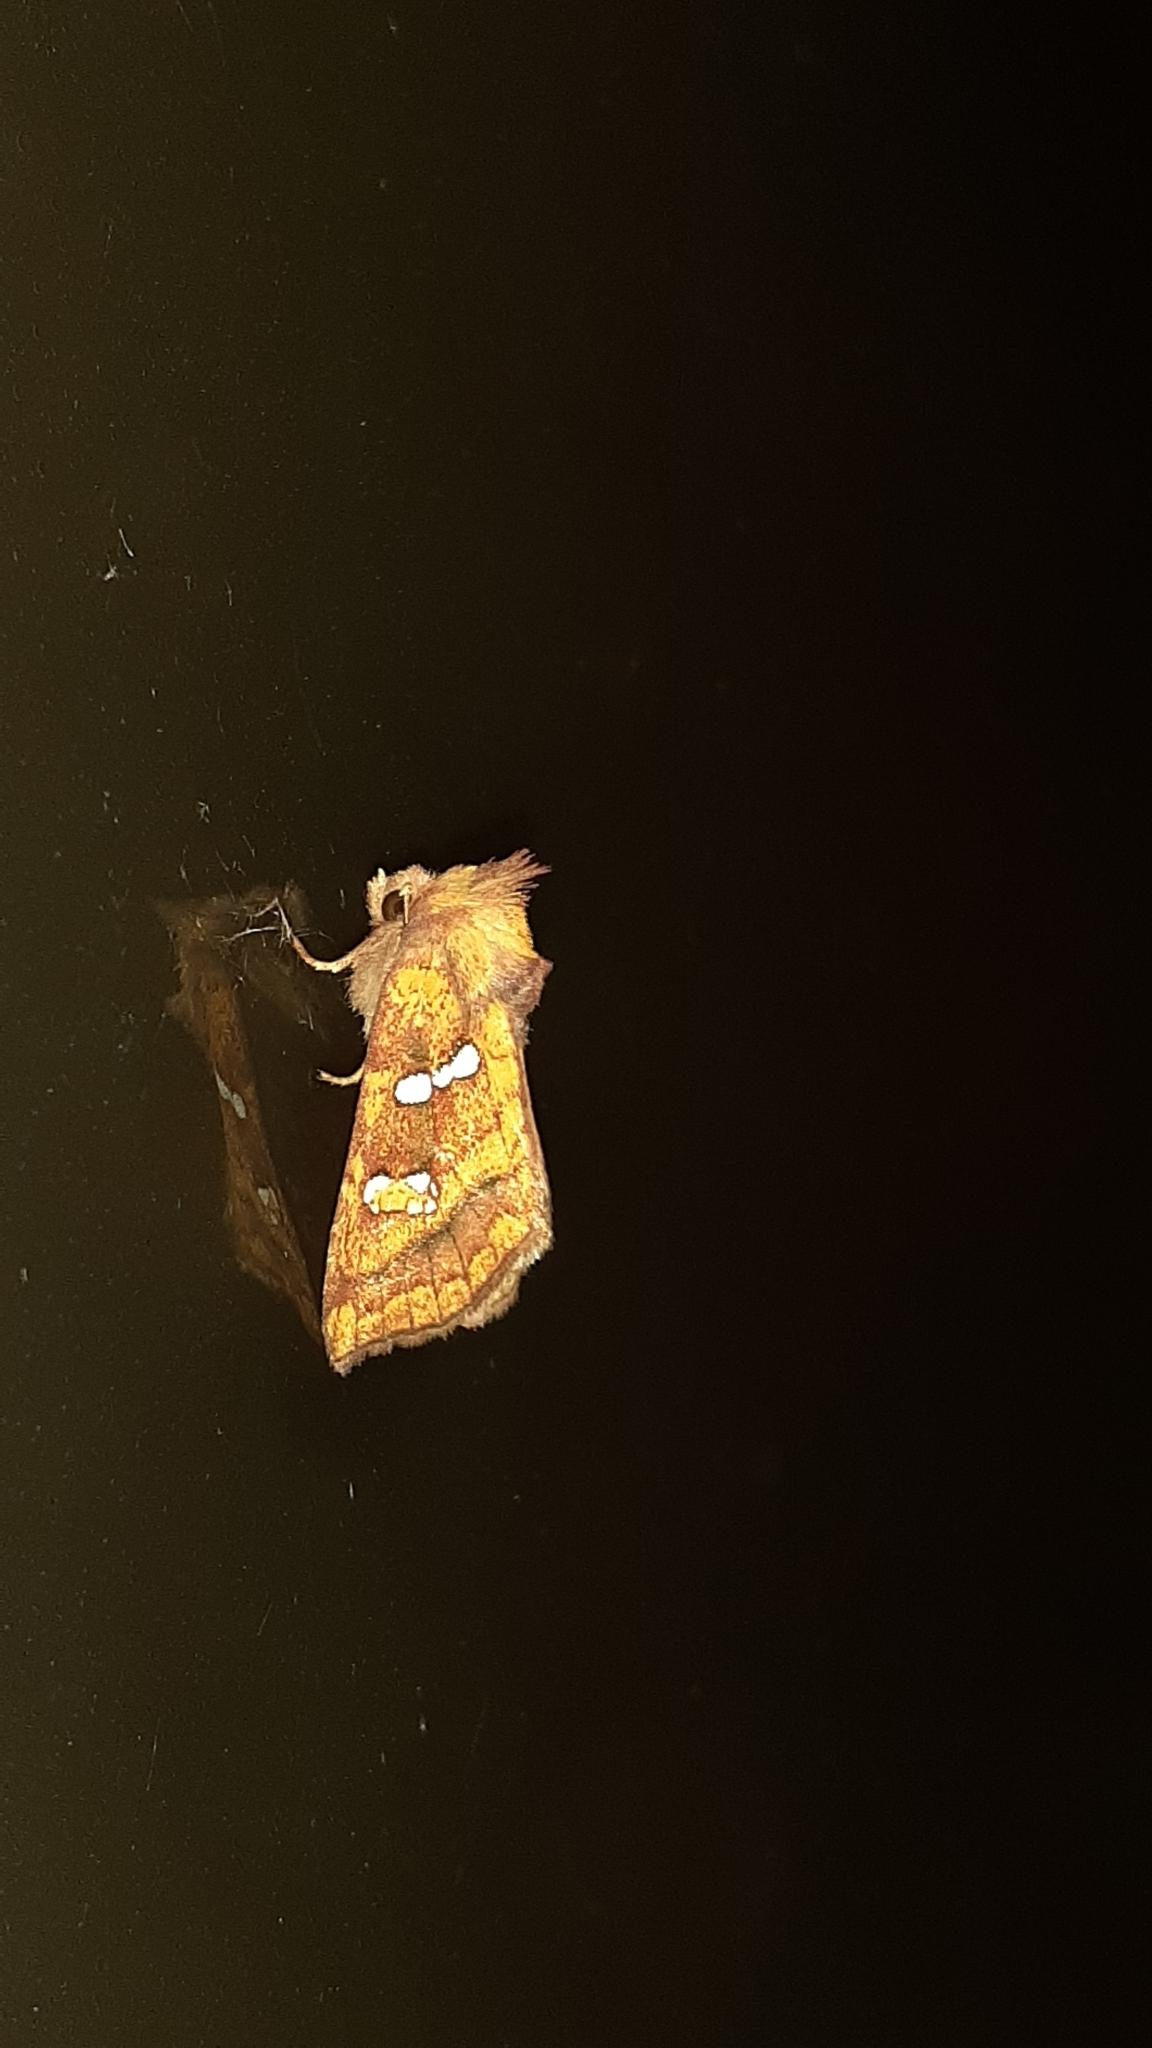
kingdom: Animalia
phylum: Arthropoda
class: Insecta
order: Lepidoptera
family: Noctuidae
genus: Papaipema
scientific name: Papaipema pterisii
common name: Bracken borer moth
